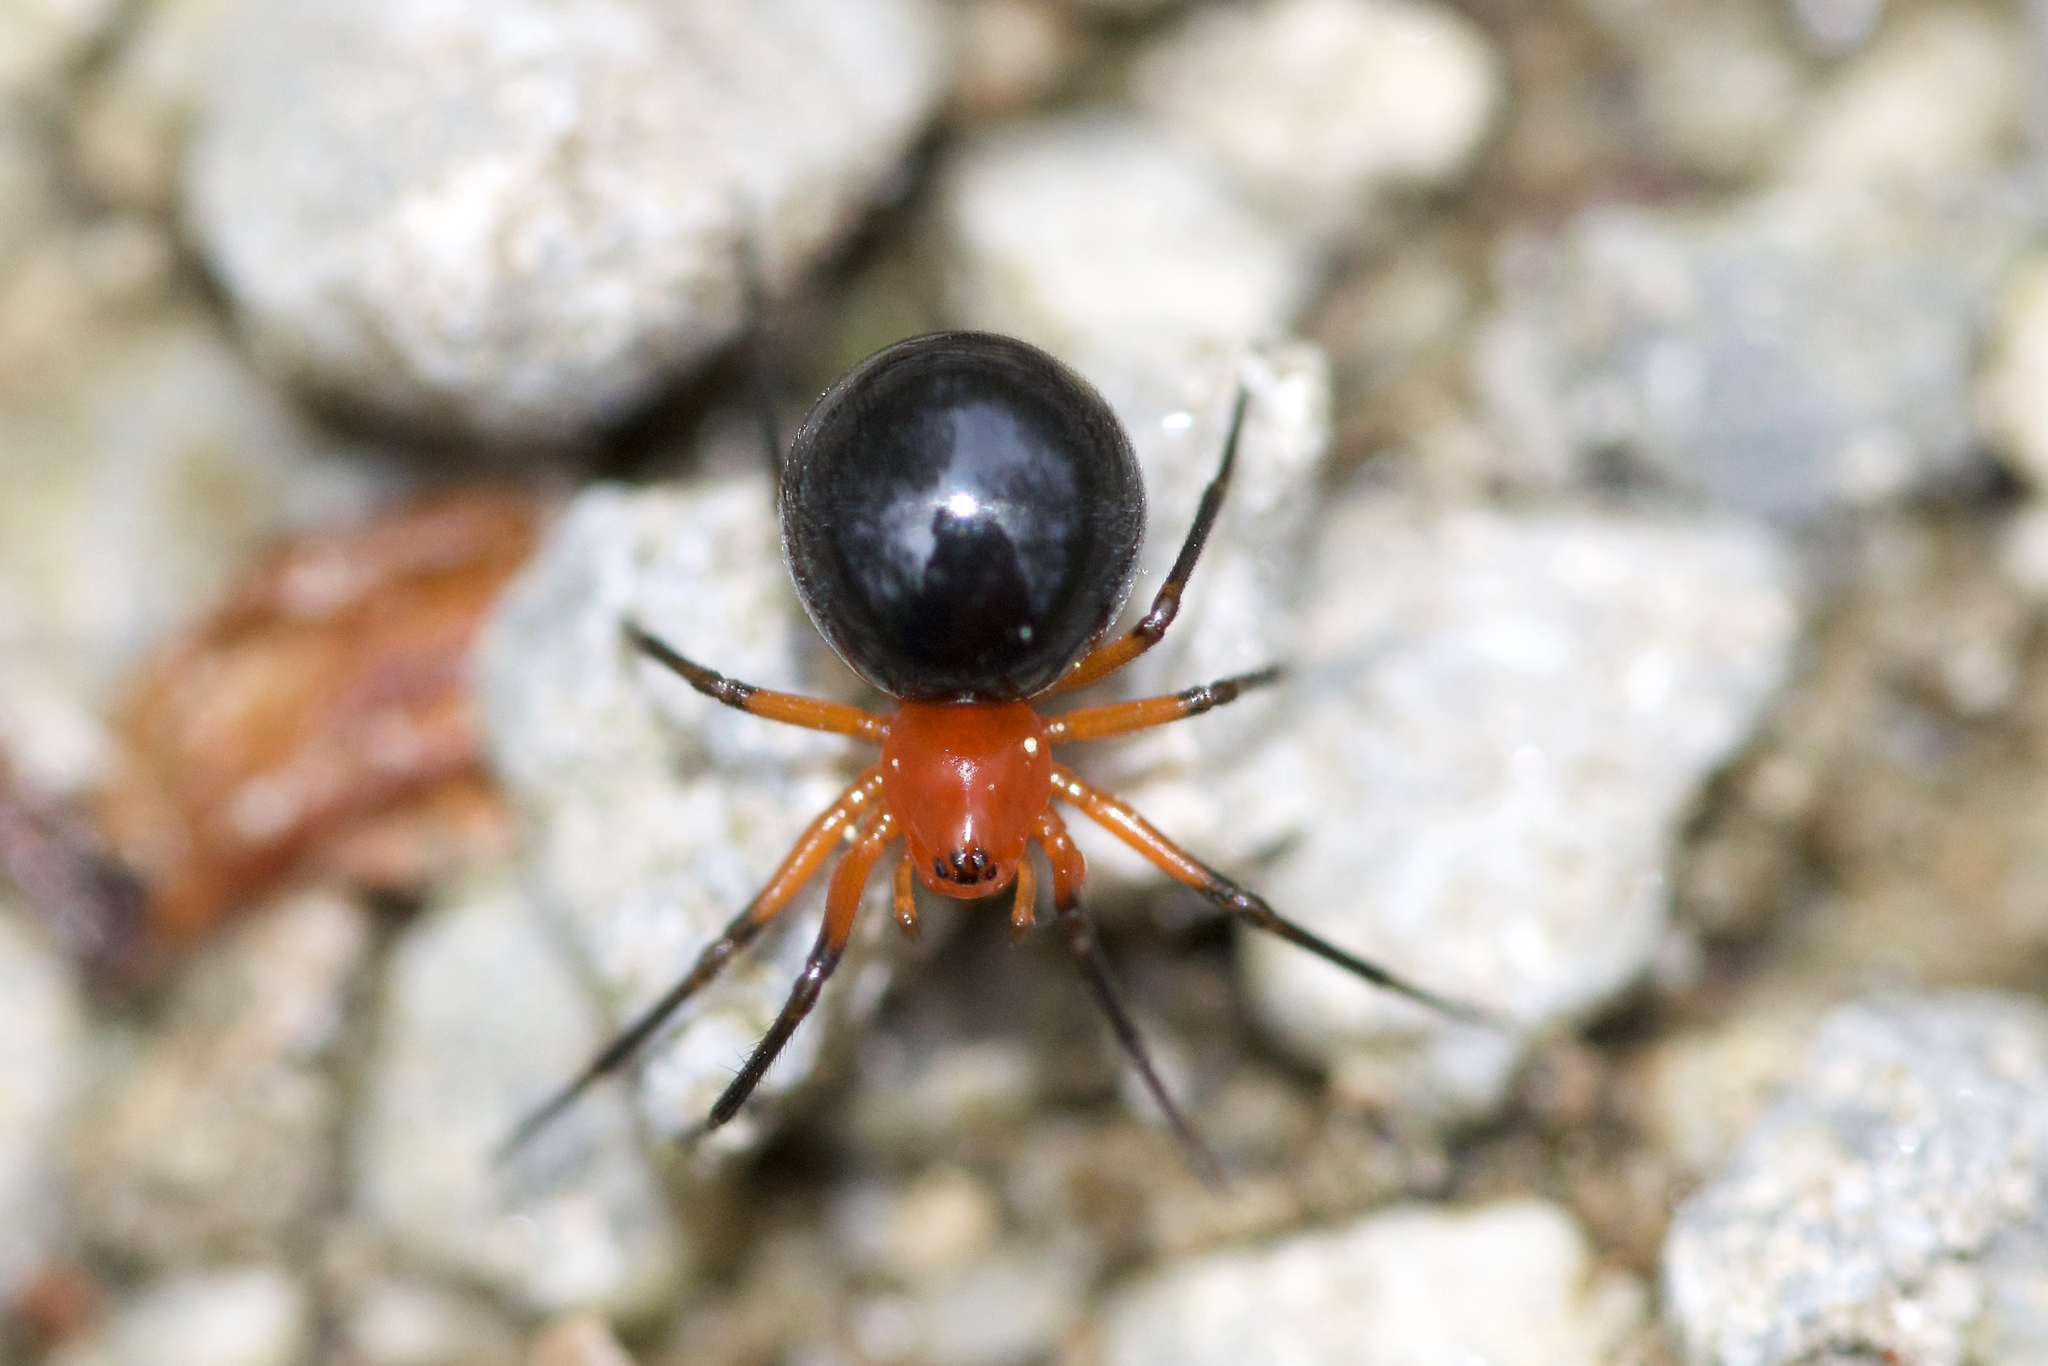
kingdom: Animalia
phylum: Arthropoda
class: Arachnida
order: Araneae
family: Linyphiidae
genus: Hypselistes
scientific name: Hypselistes florens
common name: Peatland sheetweb weaver
